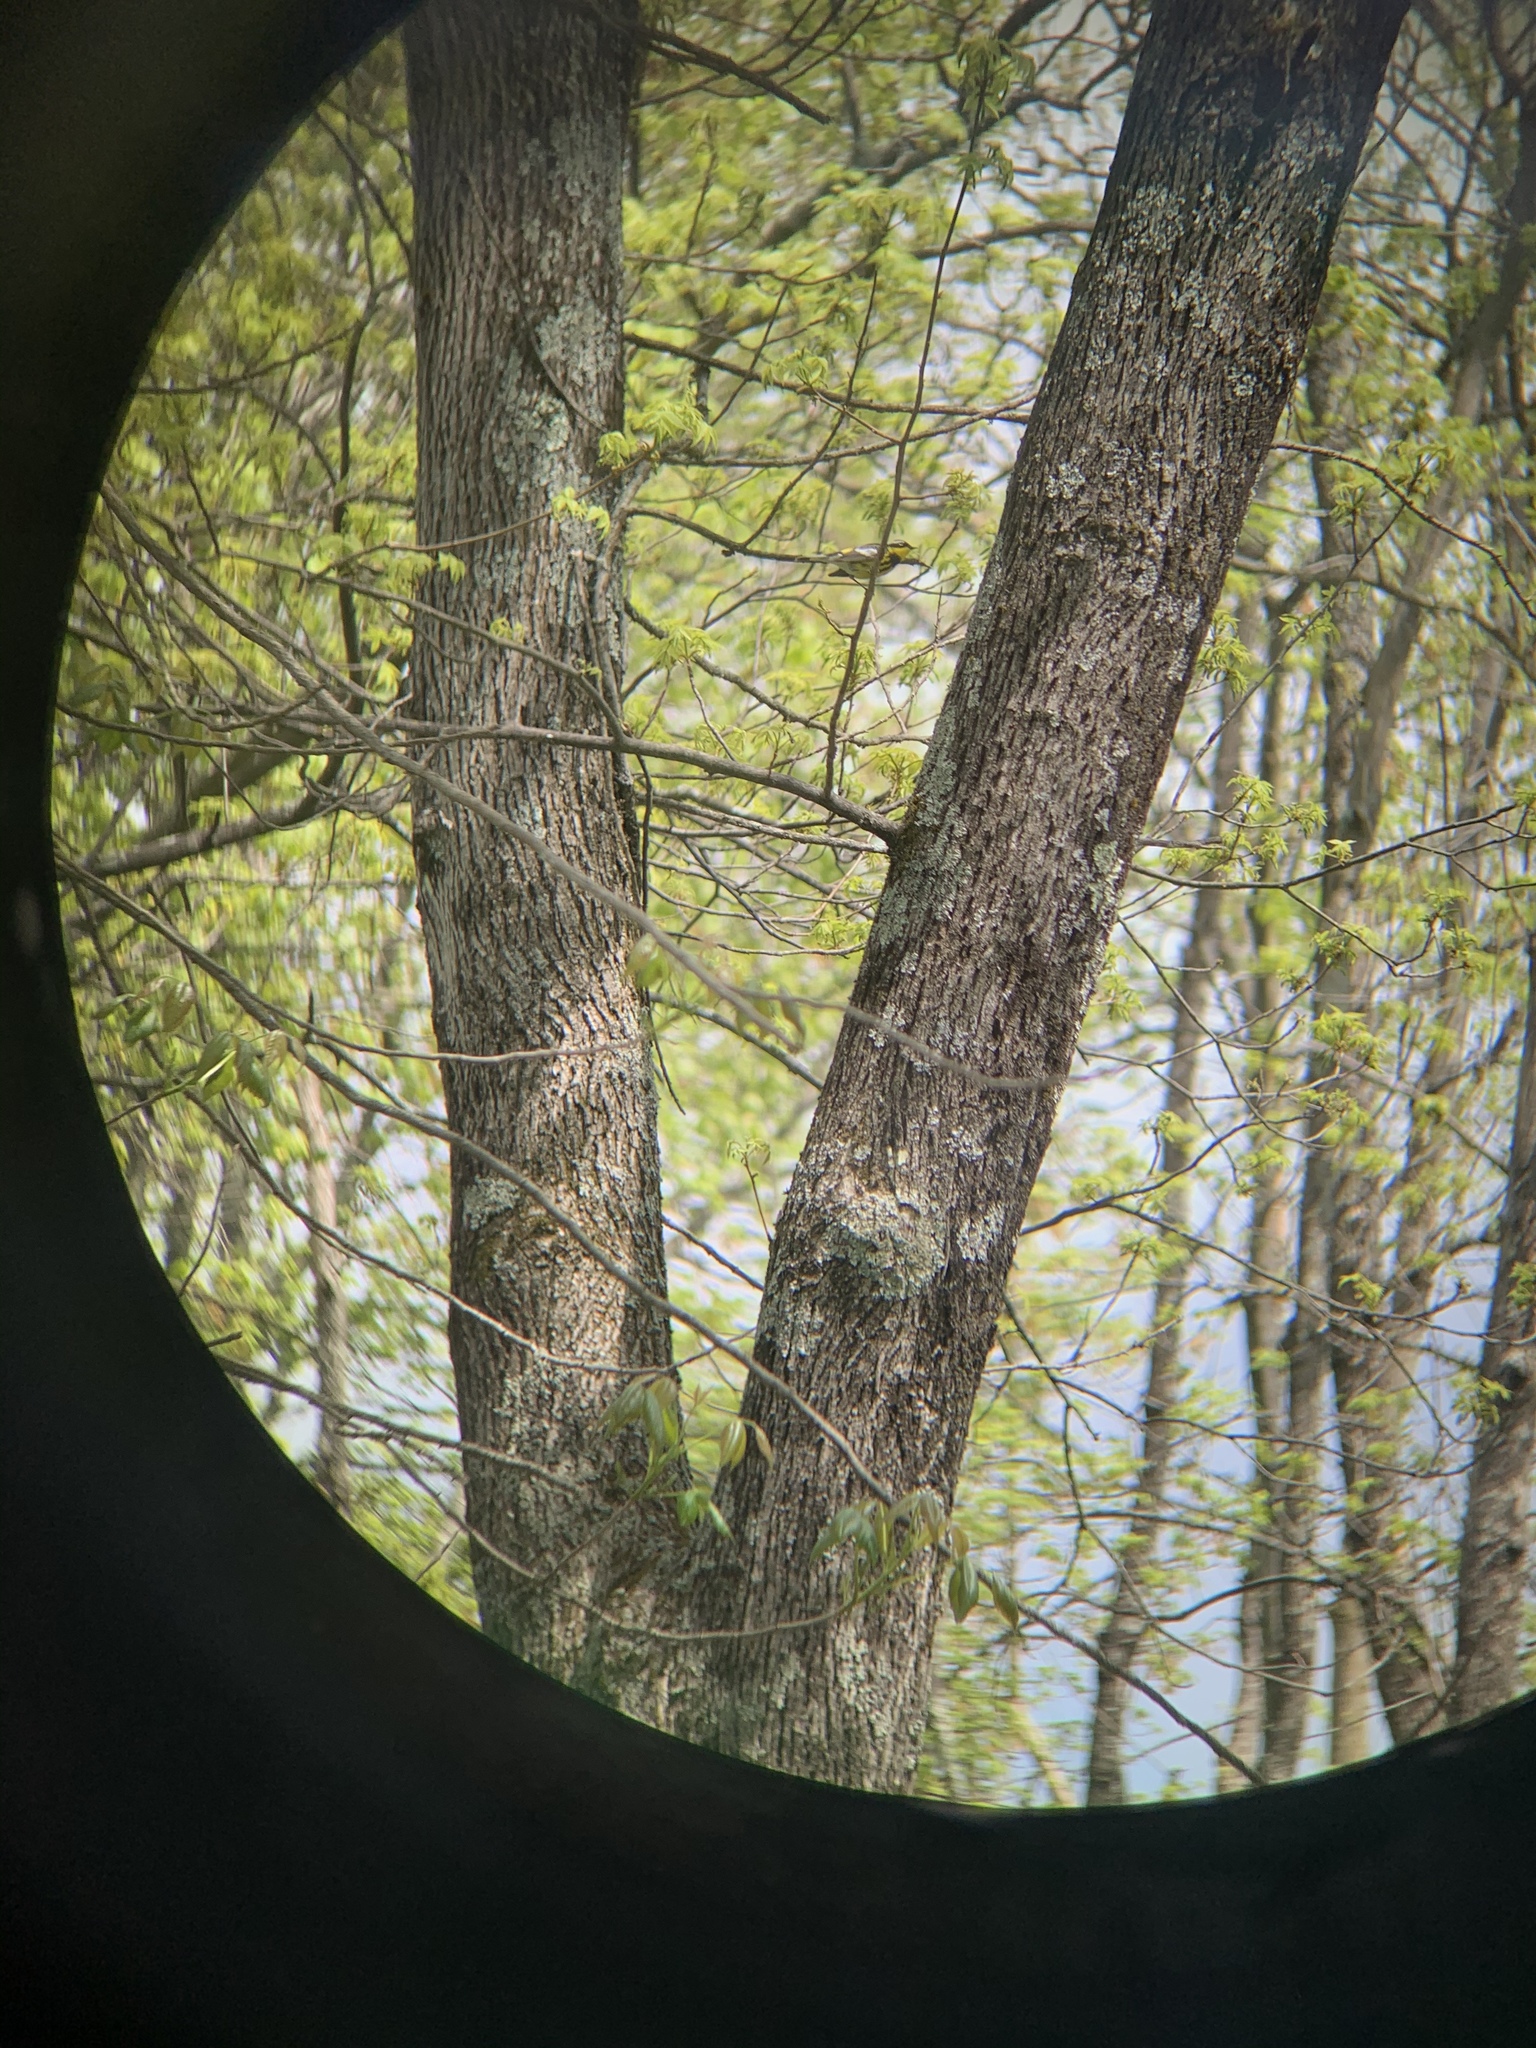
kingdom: Animalia
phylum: Chordata
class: Aves
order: Passeriformes
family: Parulidae
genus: Setophaga
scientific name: Setophaga magnolia
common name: Magnolia warbler
